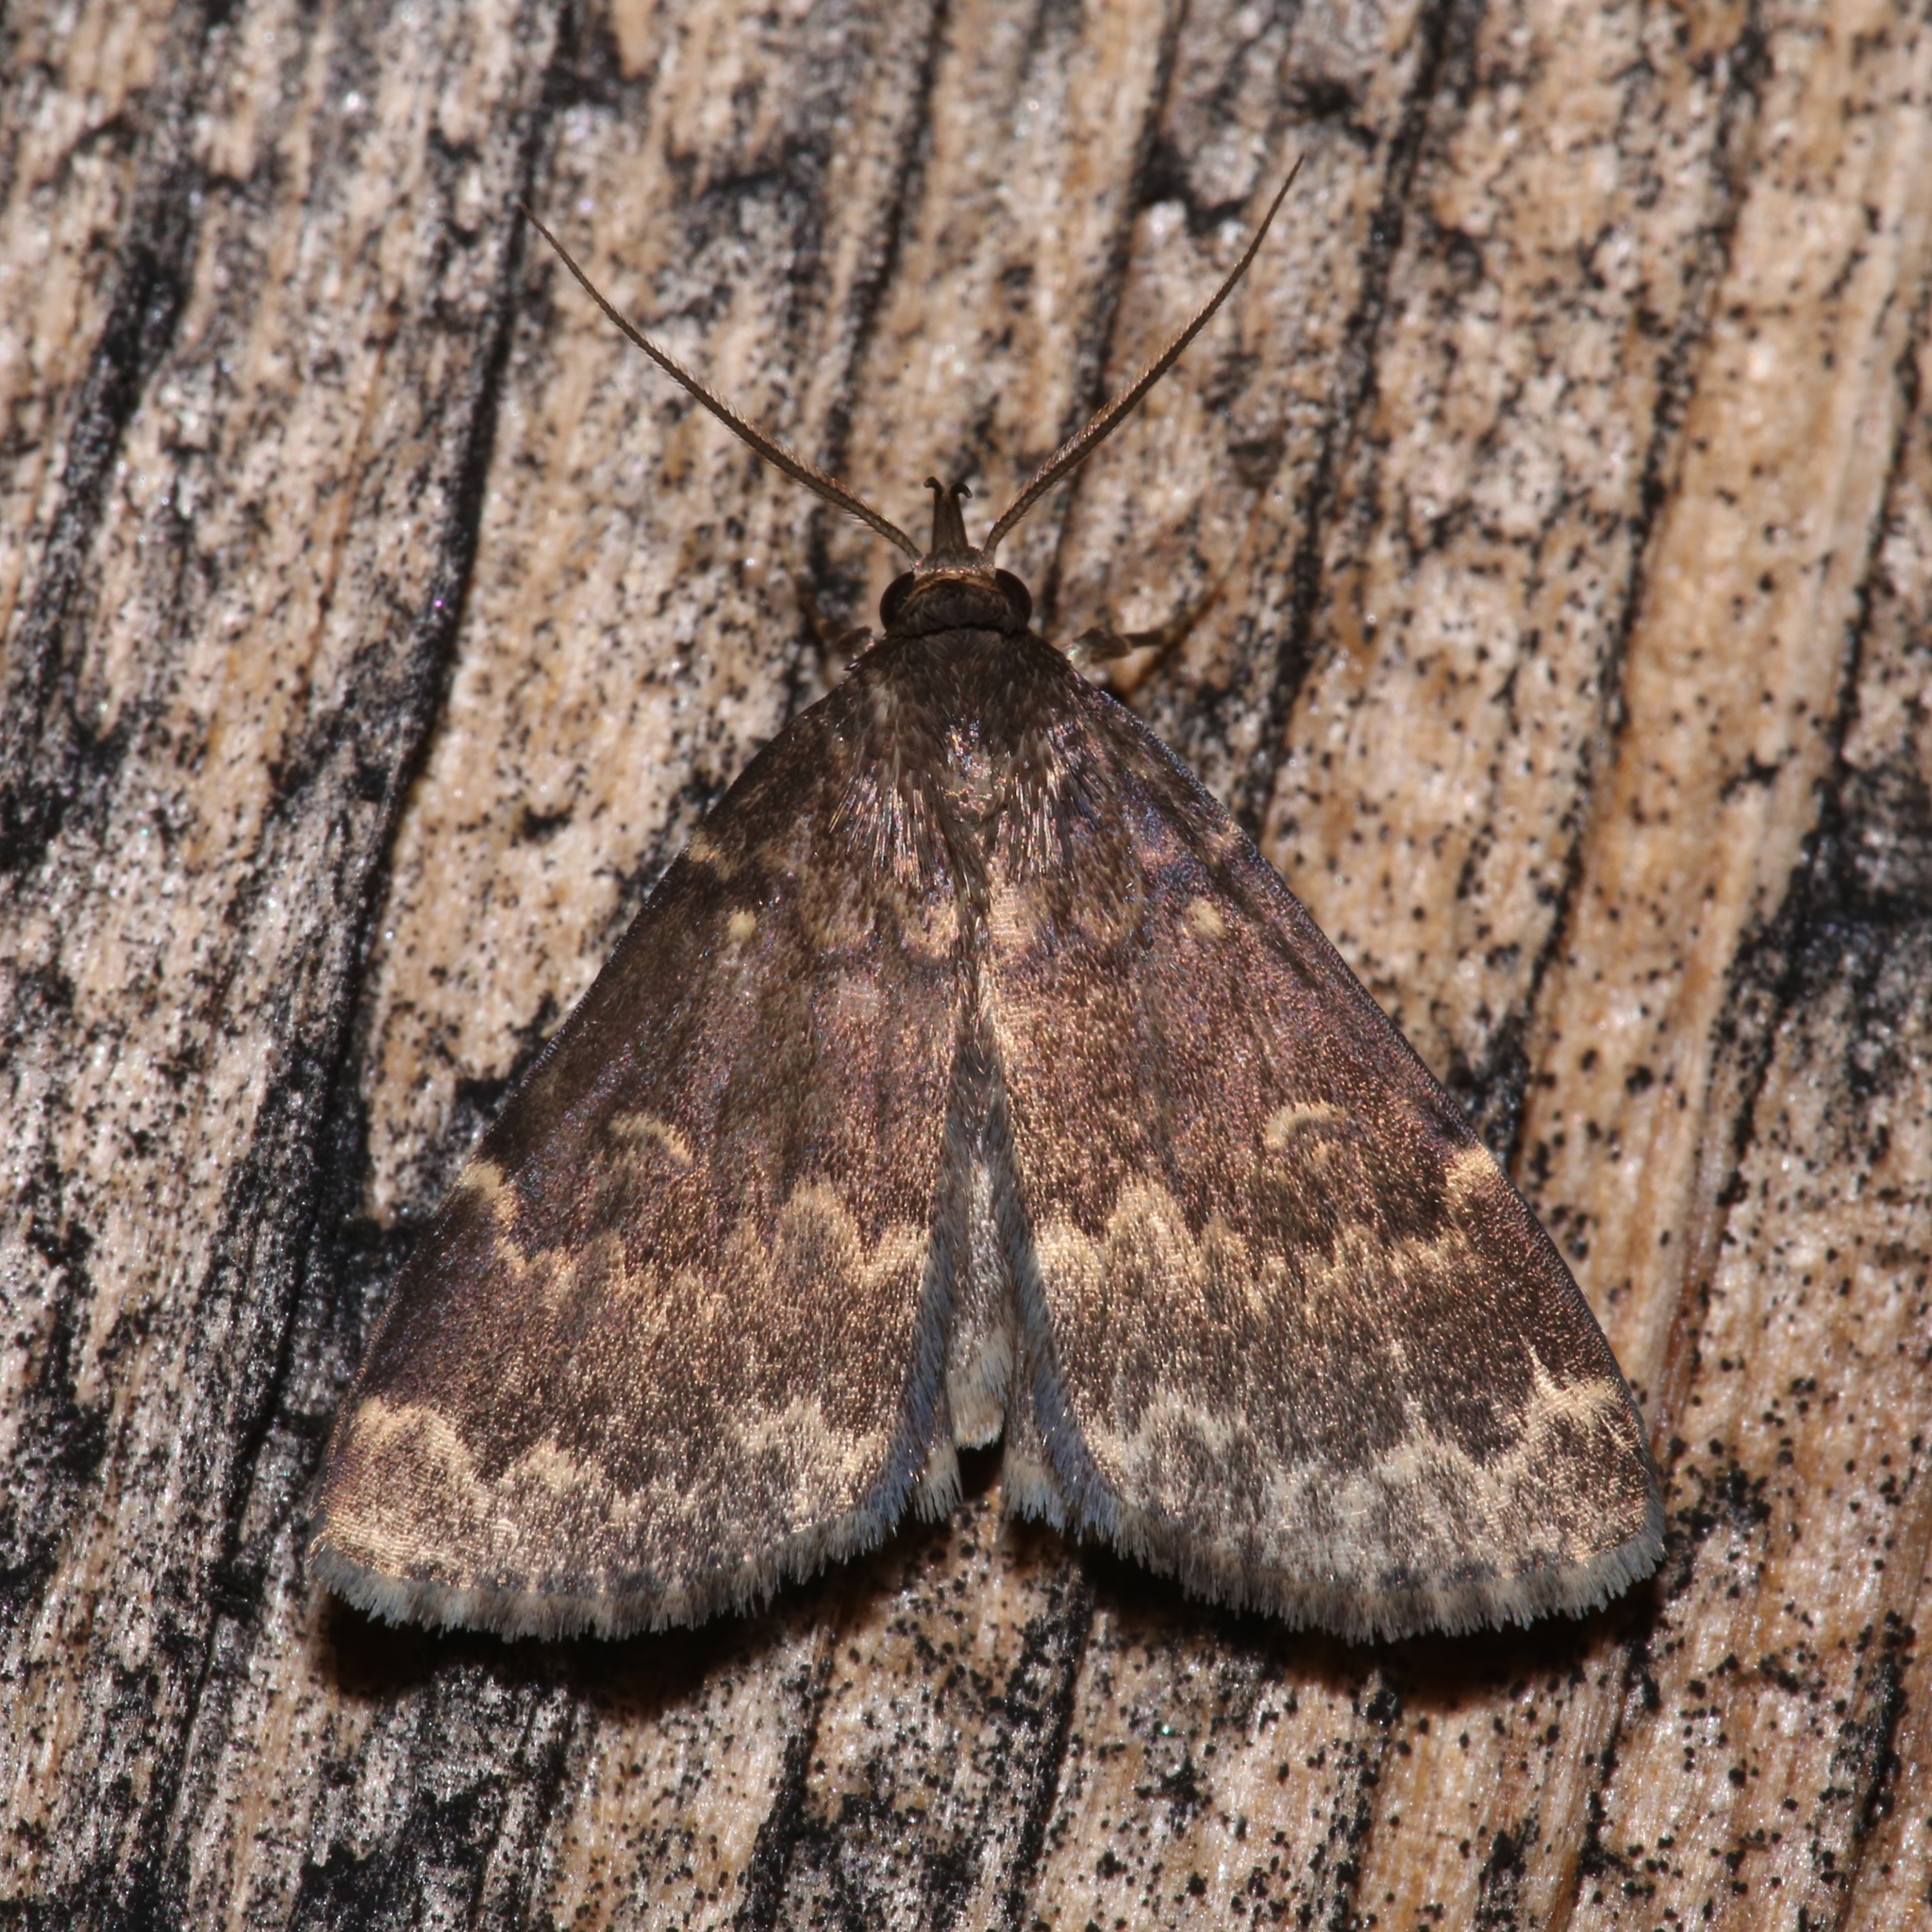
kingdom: Animalia
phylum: Arthropoda
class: Insecta
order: Lepidoptera
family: Erebidae
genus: Idia
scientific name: Idia lubricalis
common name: Twin-striped tabby
